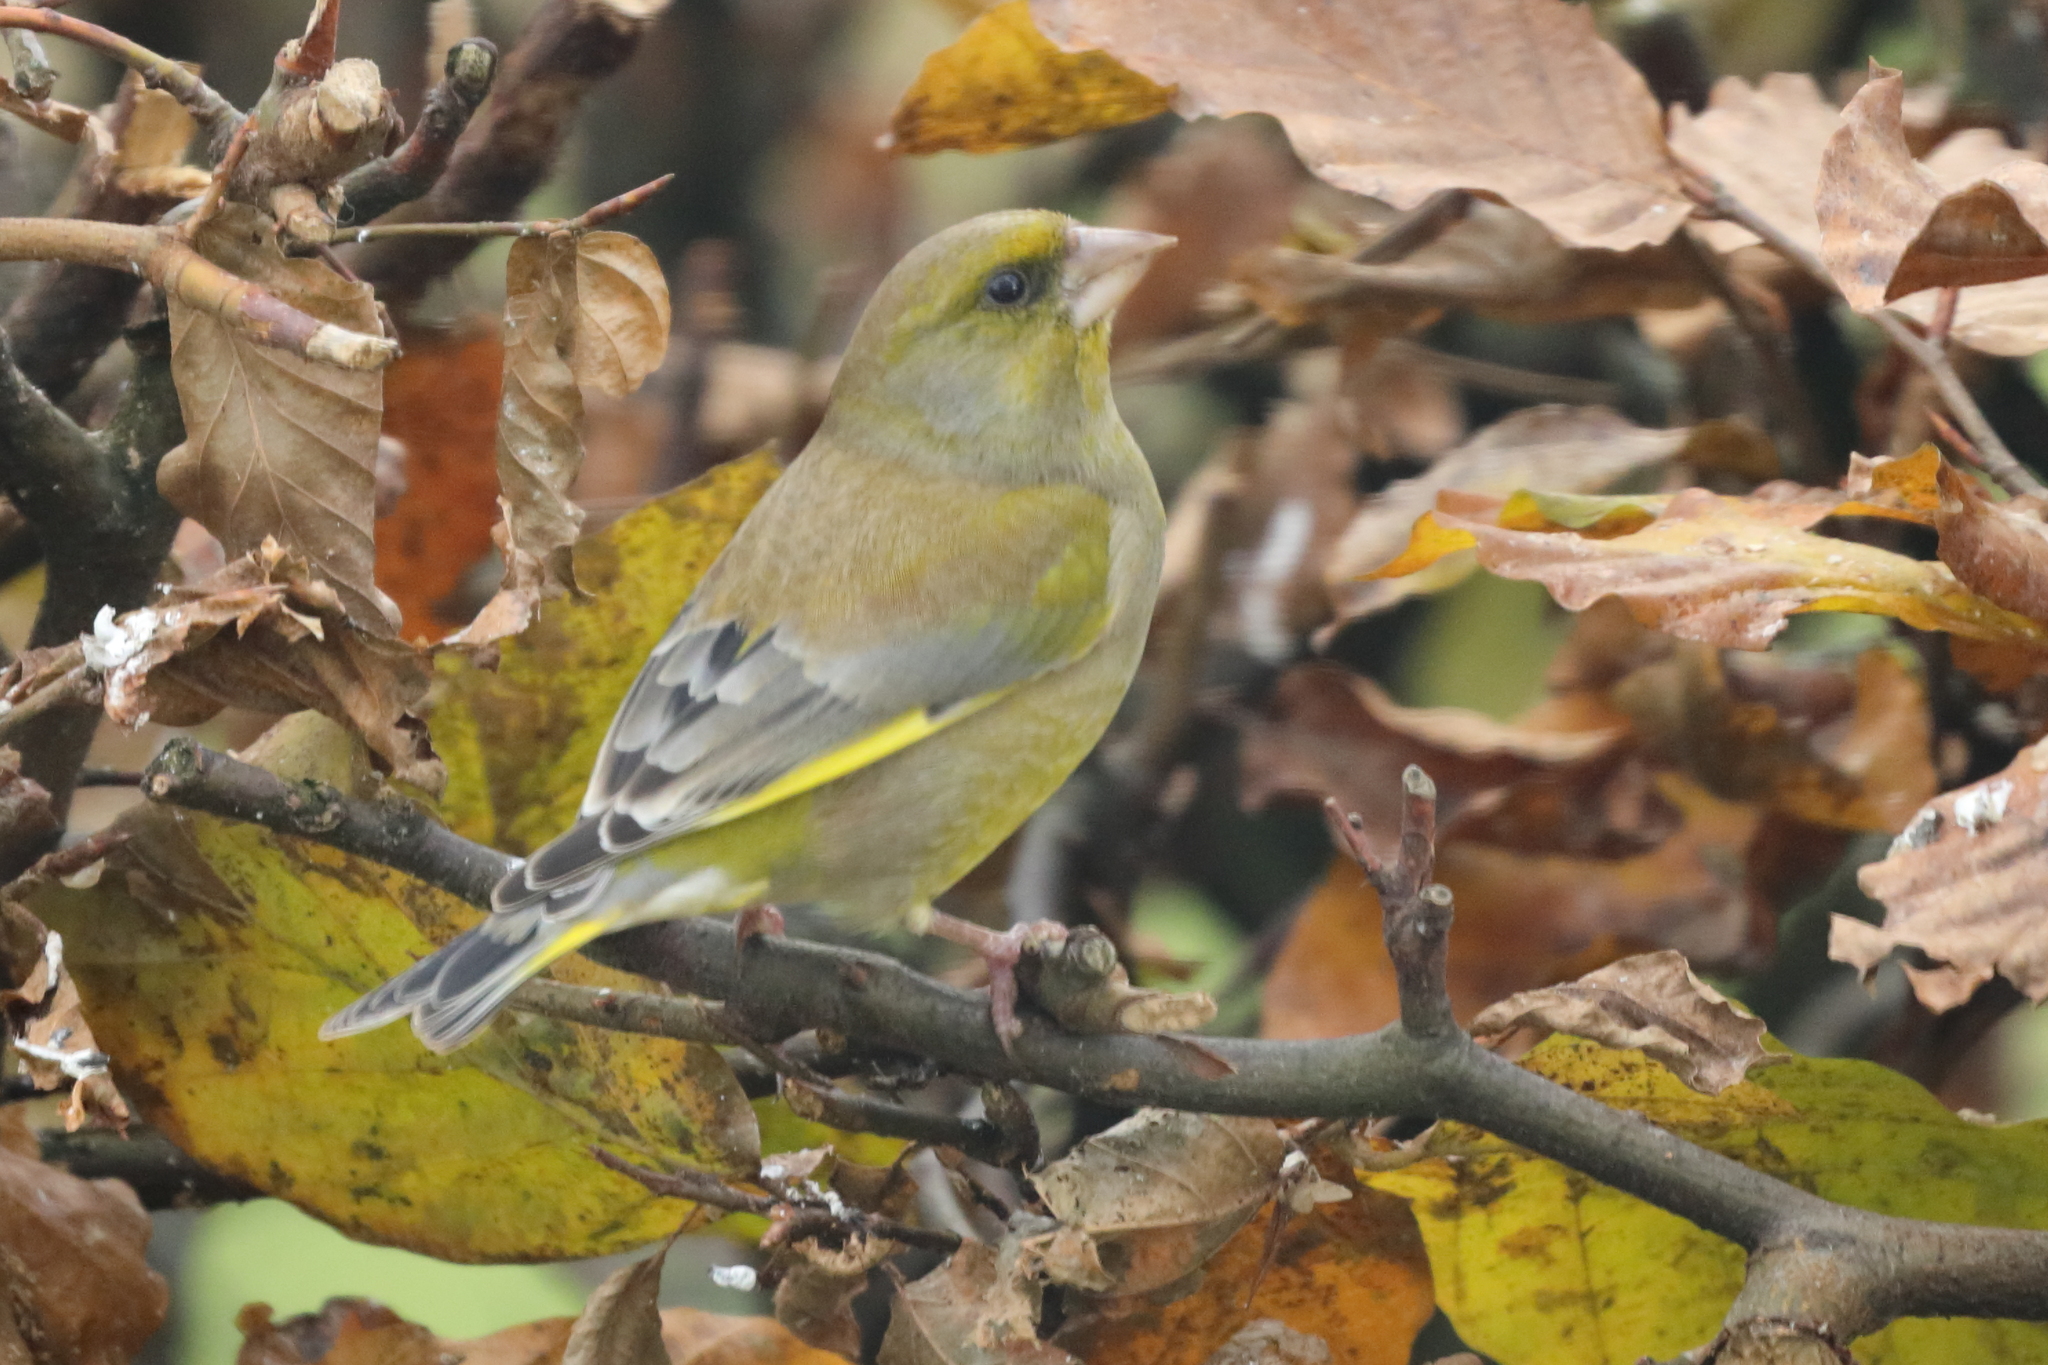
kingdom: Plantae
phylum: Tracheophyta
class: Liliopsida
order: Poales
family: Poaceae
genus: Chloris
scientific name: Chloris chloris
